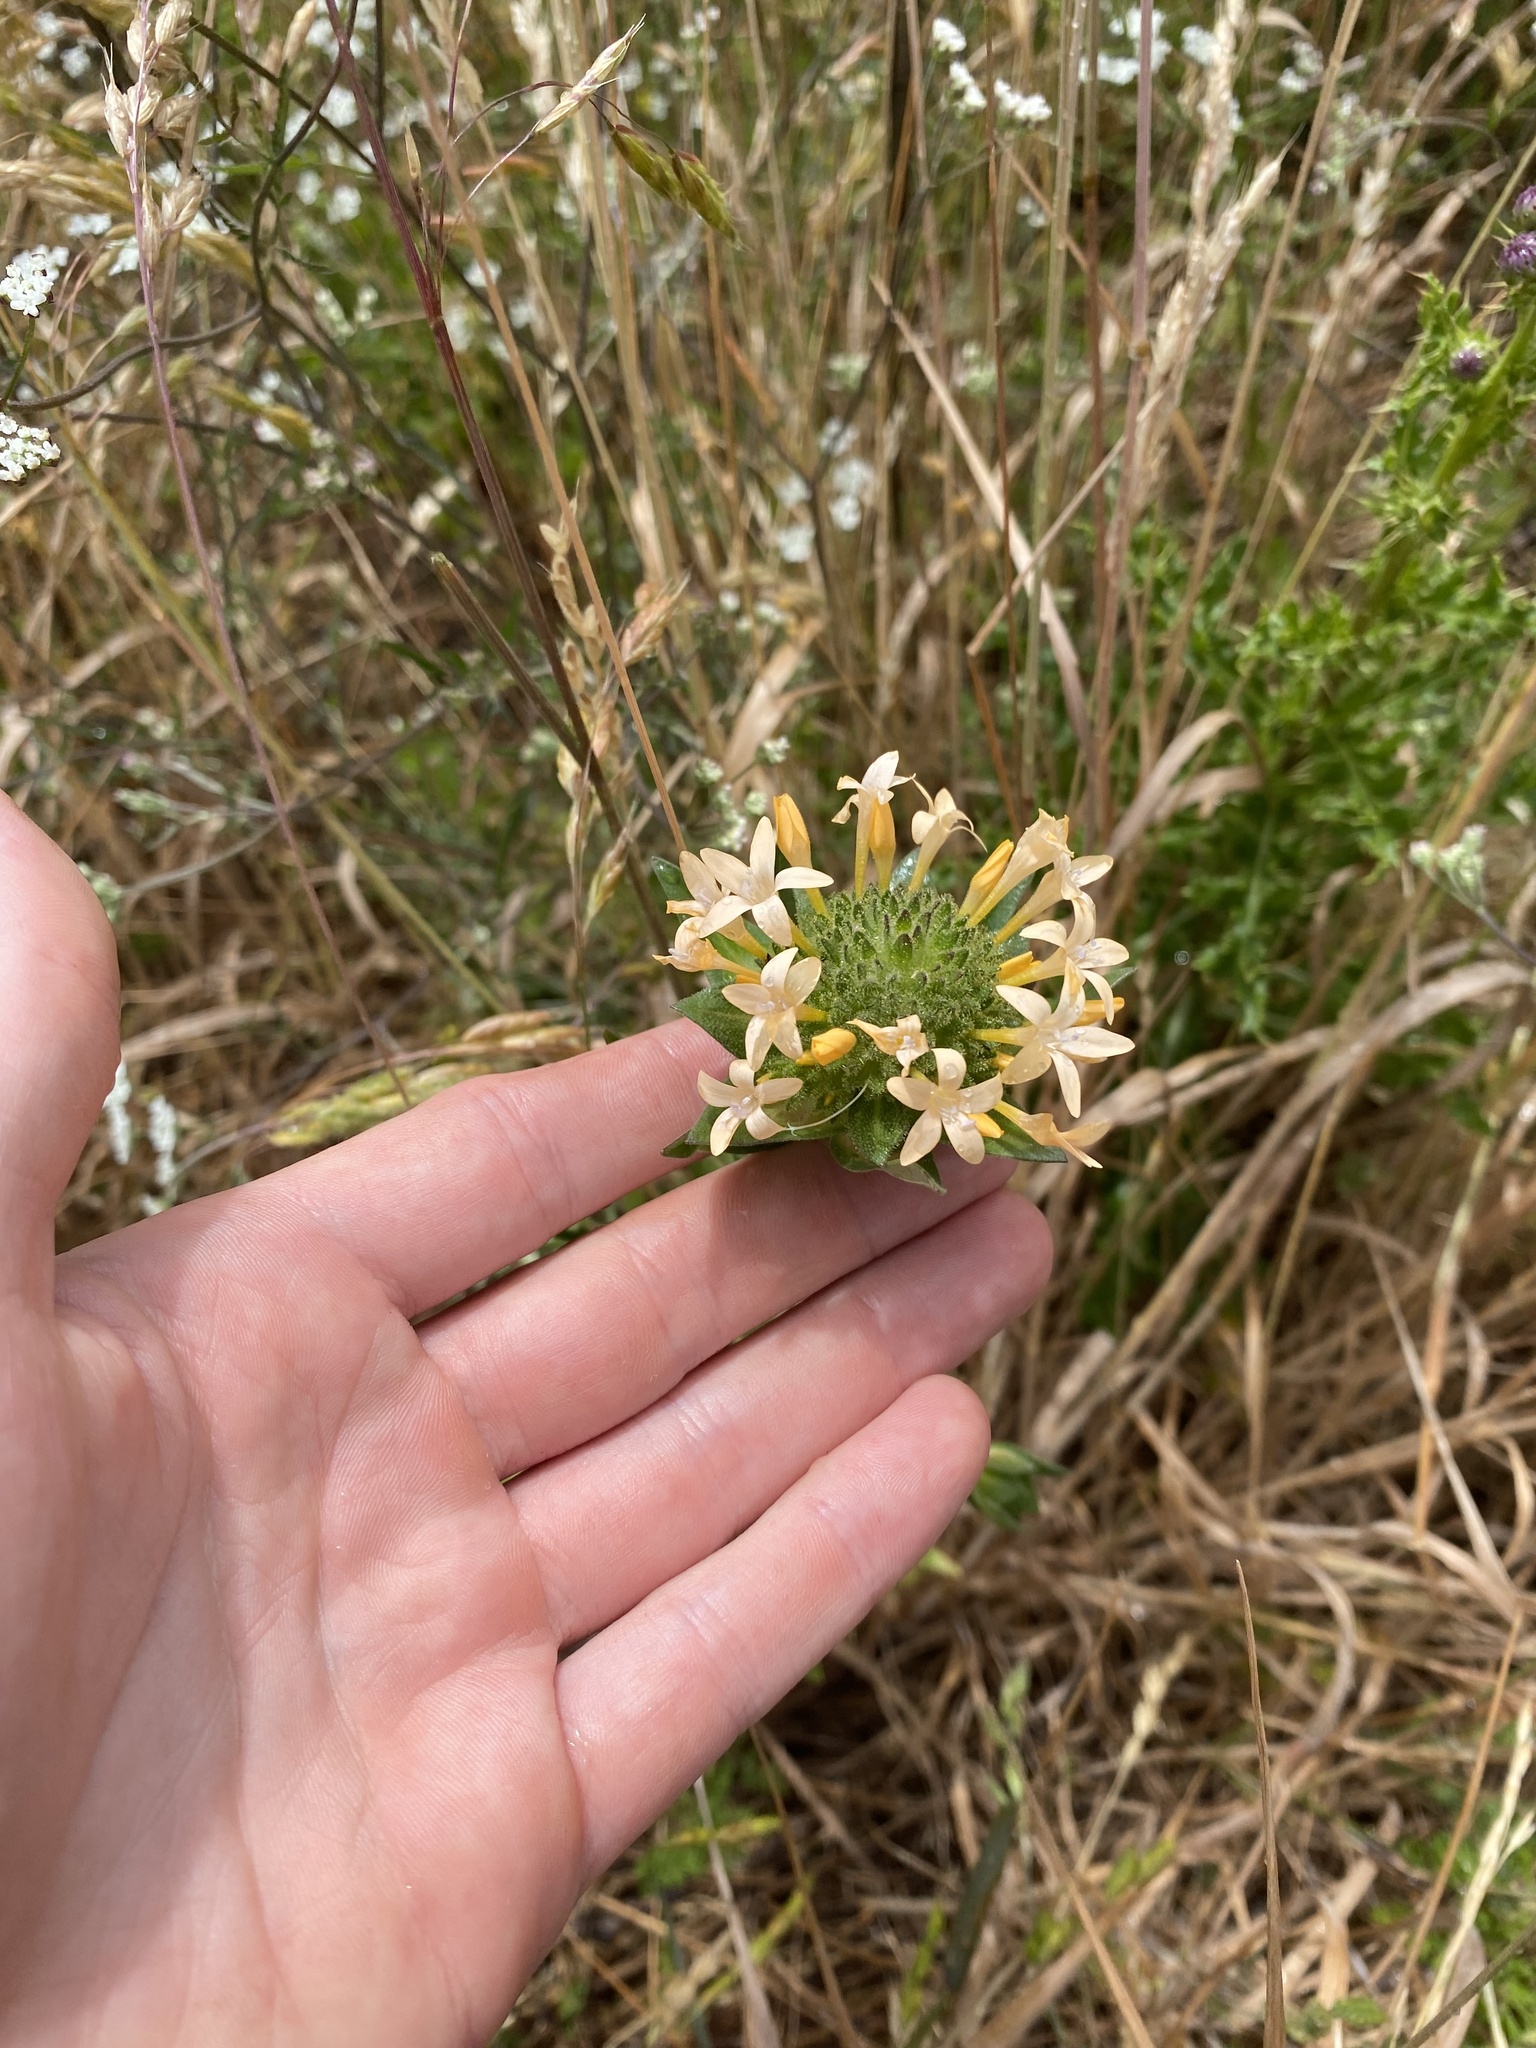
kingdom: Plantae
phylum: Tracheophyta
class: Magnoliopsida
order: Ericales
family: Polemoniaceae
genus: Collomia
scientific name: Collomia grandiflora
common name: California strawflower
